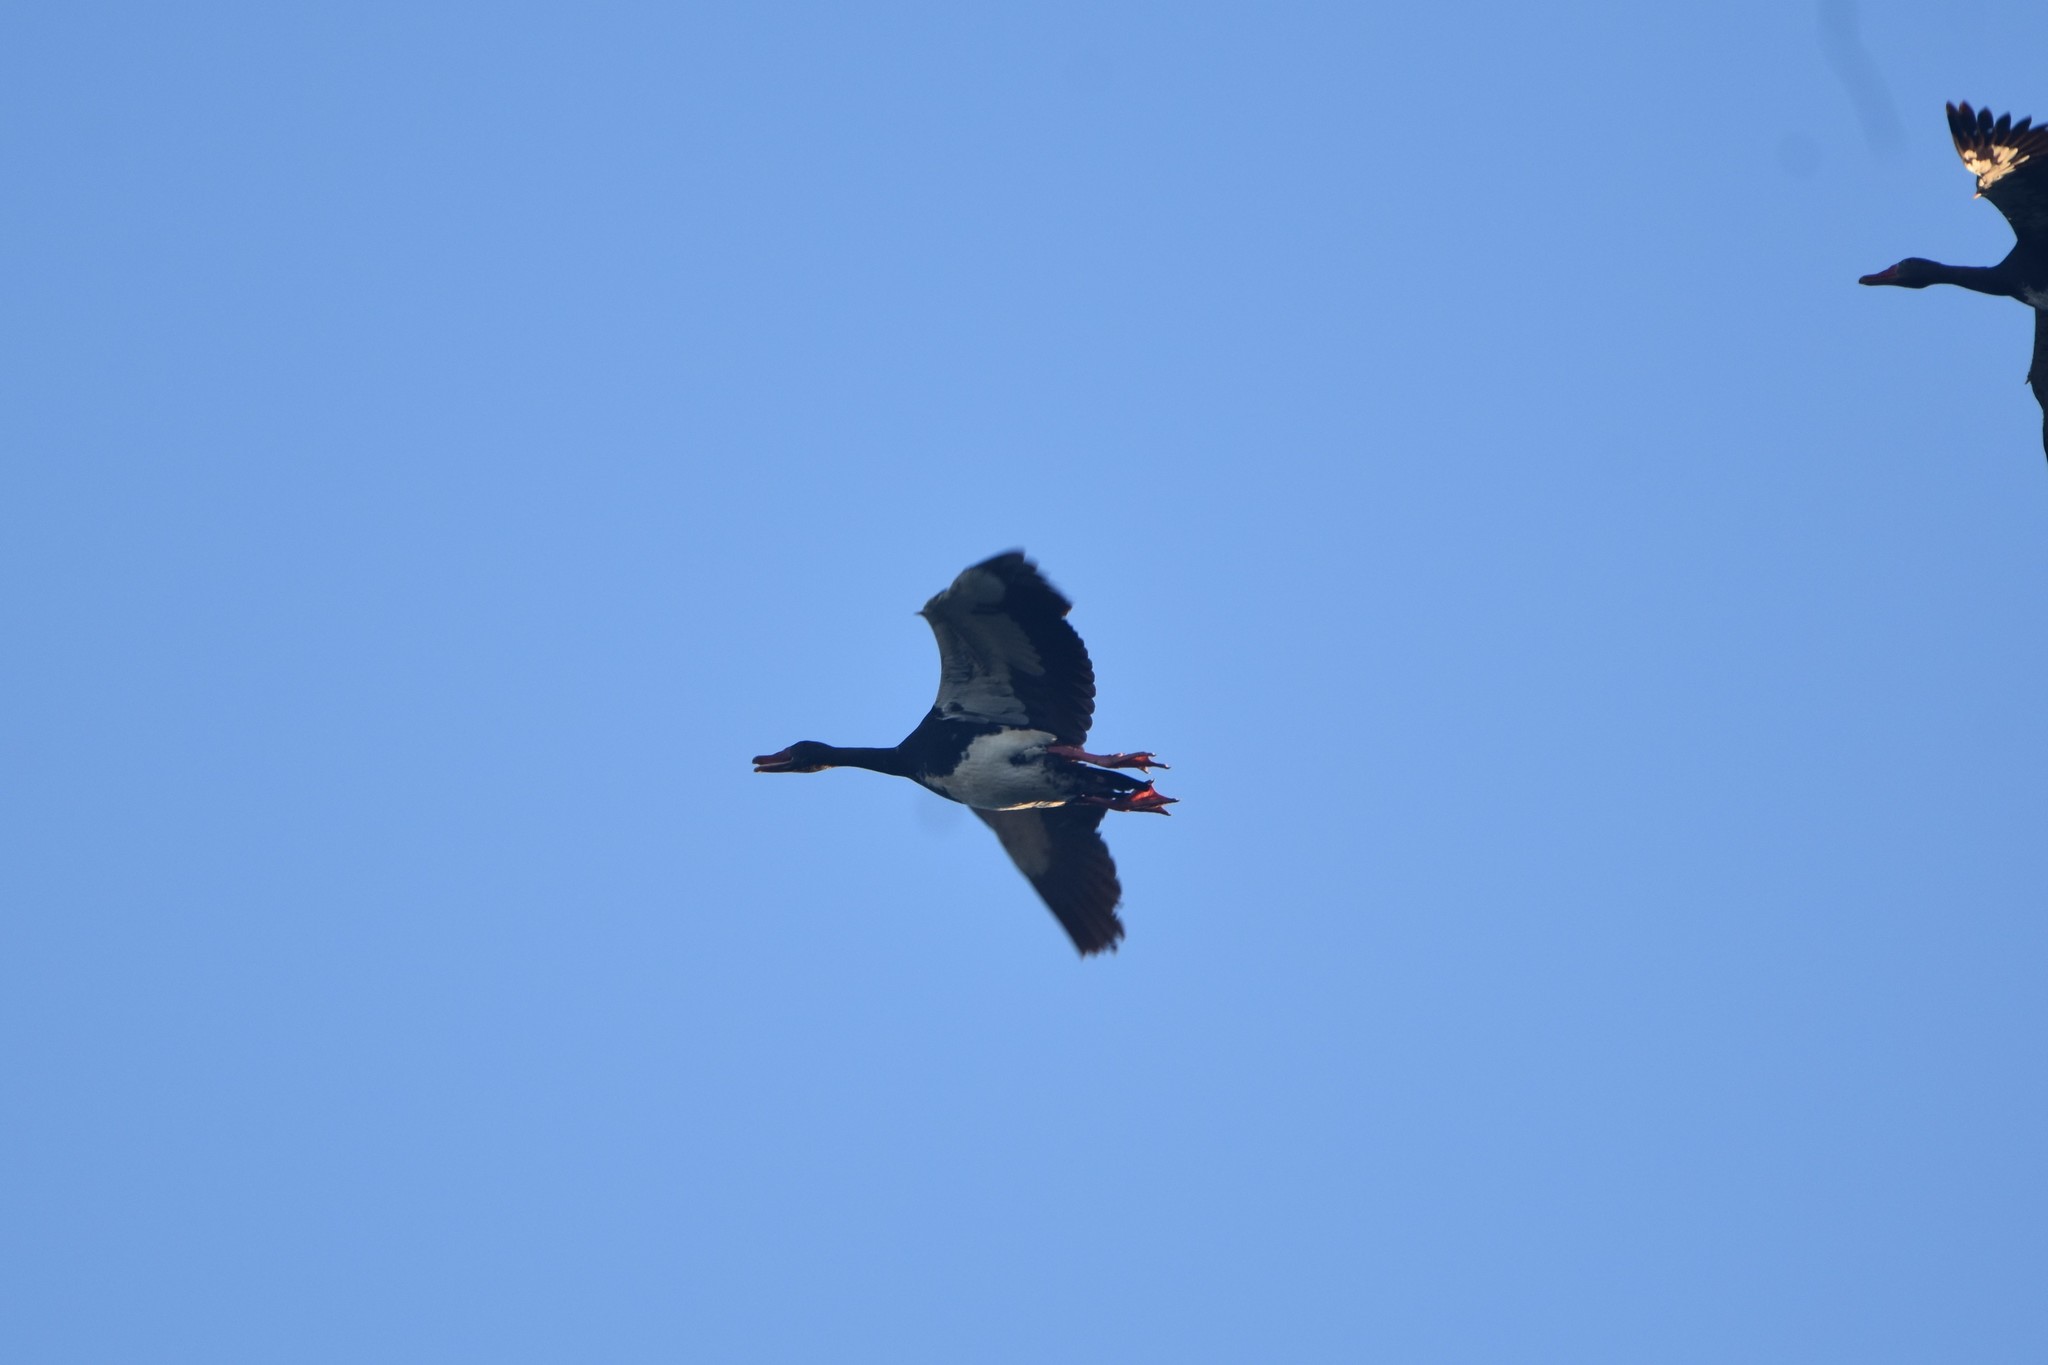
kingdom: Animalia
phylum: Chordata
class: Aves
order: Anseriformes
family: Anatidae
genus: Plectropterus
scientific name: Plectropterus gambensis
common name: Spur-winged goose
